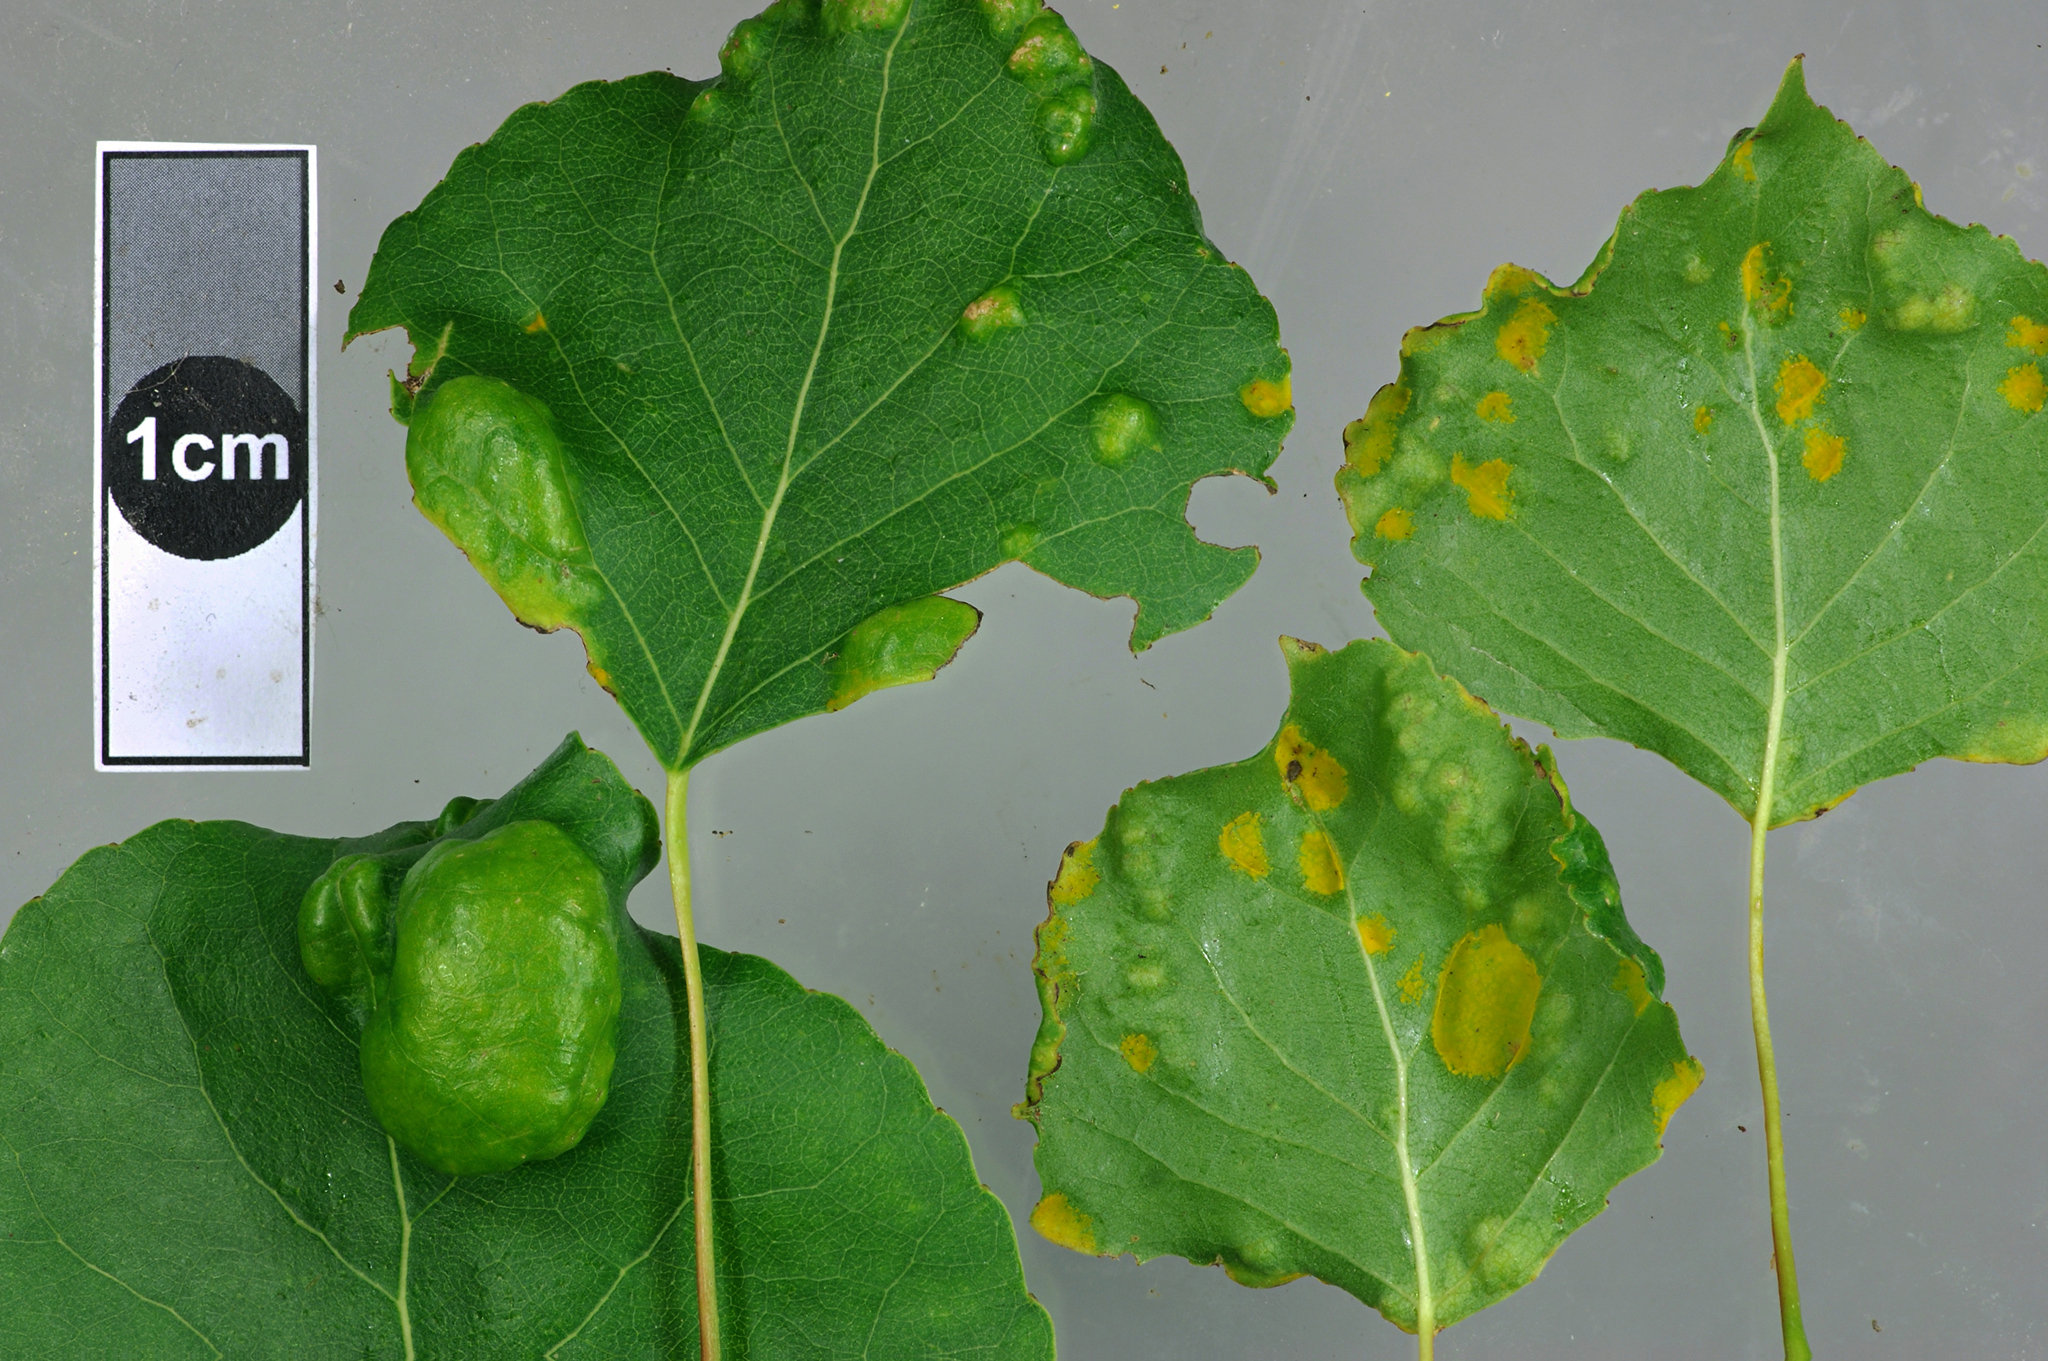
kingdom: Fungi
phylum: Ascomycota
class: Taphrinomycetes
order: Taphrinales
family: Taphrinaceae
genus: Taphrina
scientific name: Taphrina populina
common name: Poplar leaf curl
